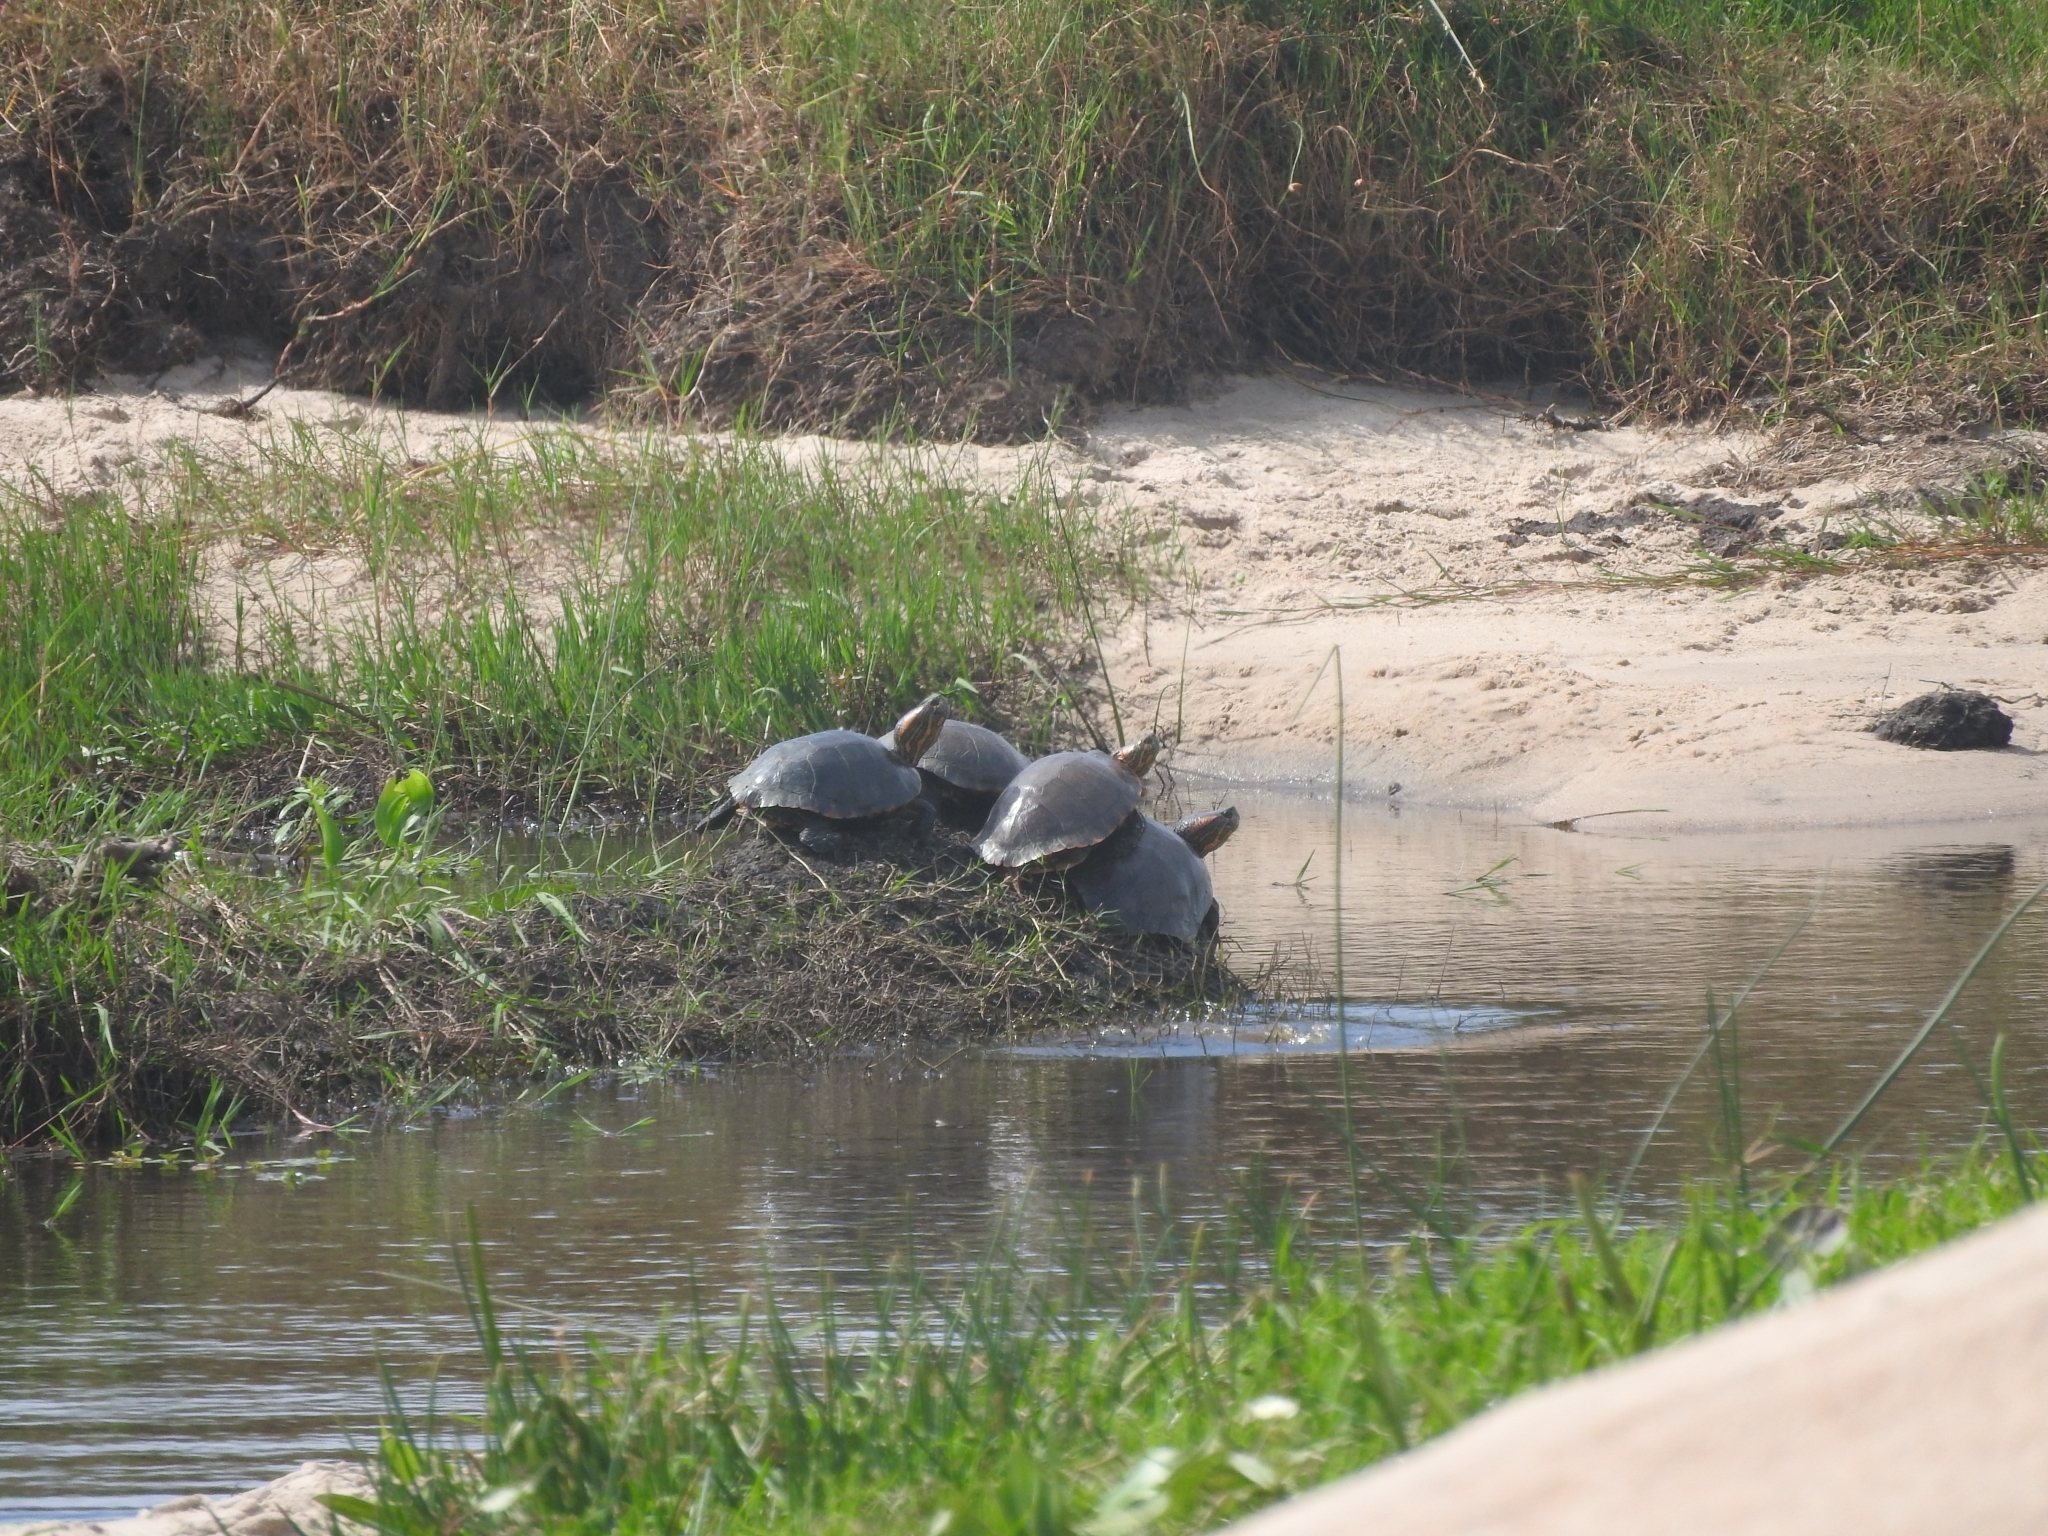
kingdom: Animalia
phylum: Chordata
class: Testudines
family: Emydidae
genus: Trachemys
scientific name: Trachemys dorbigni
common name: Black-bellied slider
